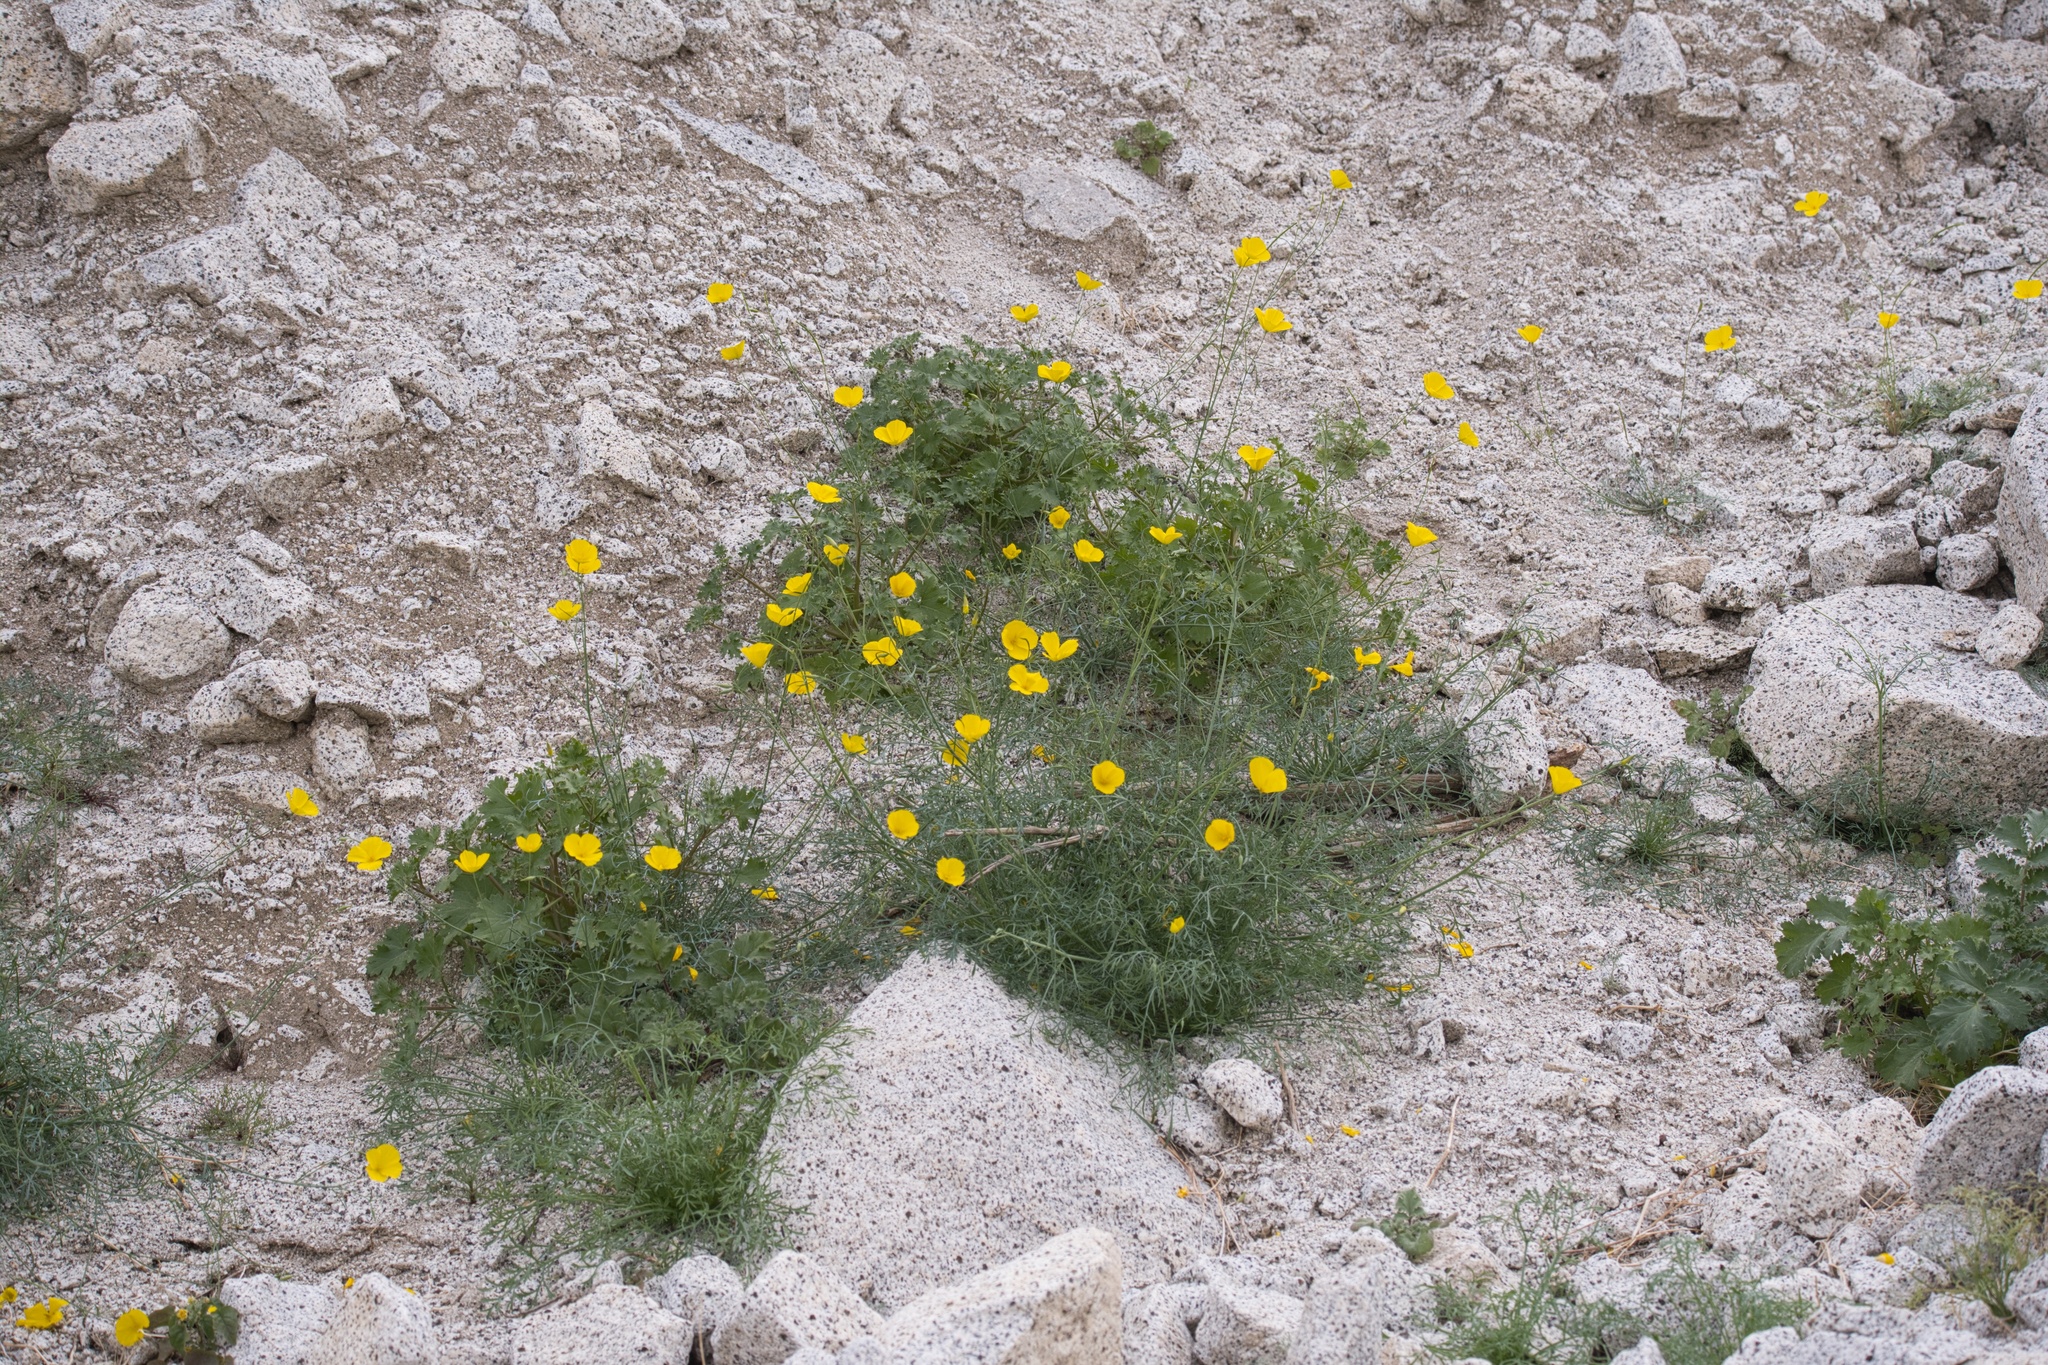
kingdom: Plantae
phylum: Tracheophyta
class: Magnoliopsida
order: Ranunculales
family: Papaveraceae
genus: Eschscholzia
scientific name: Eschscholzia parishii
